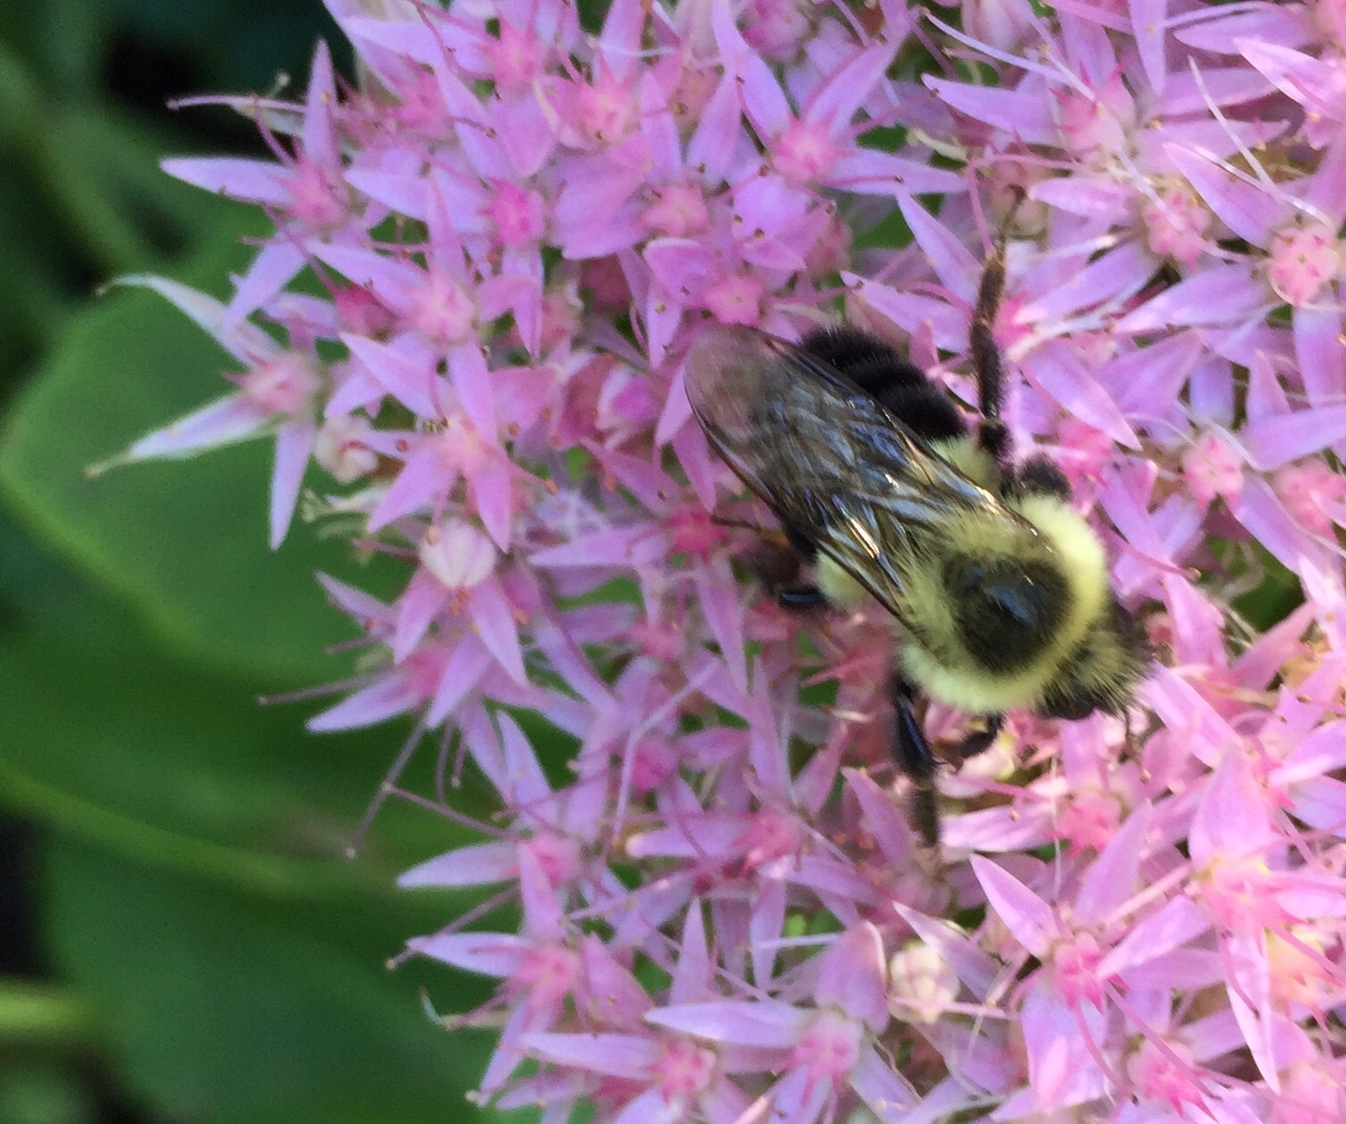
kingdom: Animalia
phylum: Arthropoda
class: Insecta
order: Hymenoptera
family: Apidae
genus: Bombus
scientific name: Bombus impatiens
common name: Common eastern bumble bee
